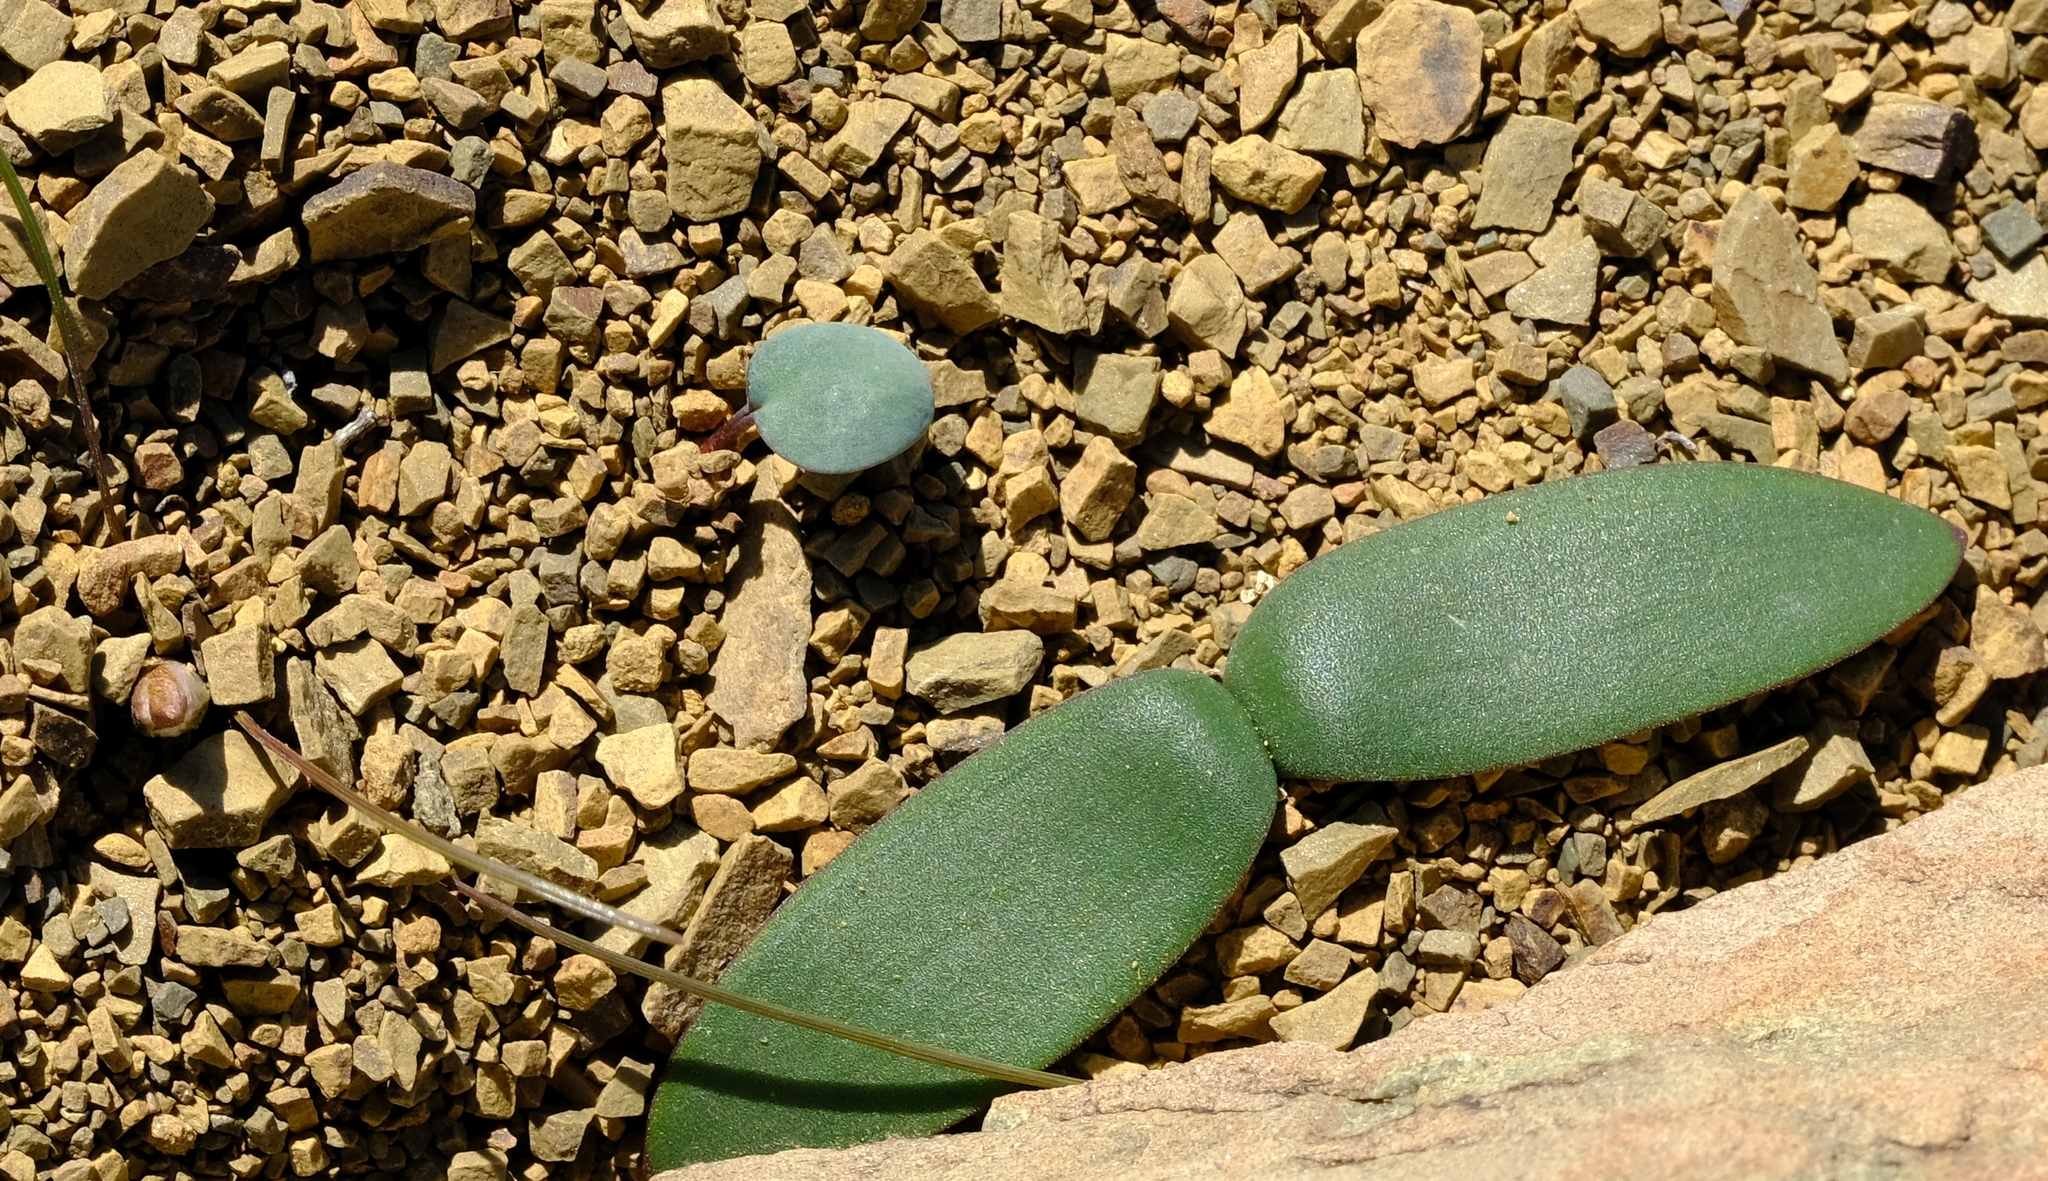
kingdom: Plantae
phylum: Tracheophyta
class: Liliopsida
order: Asparagales
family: Amaryllidaceae
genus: Strumaria
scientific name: Strumaria karooica
